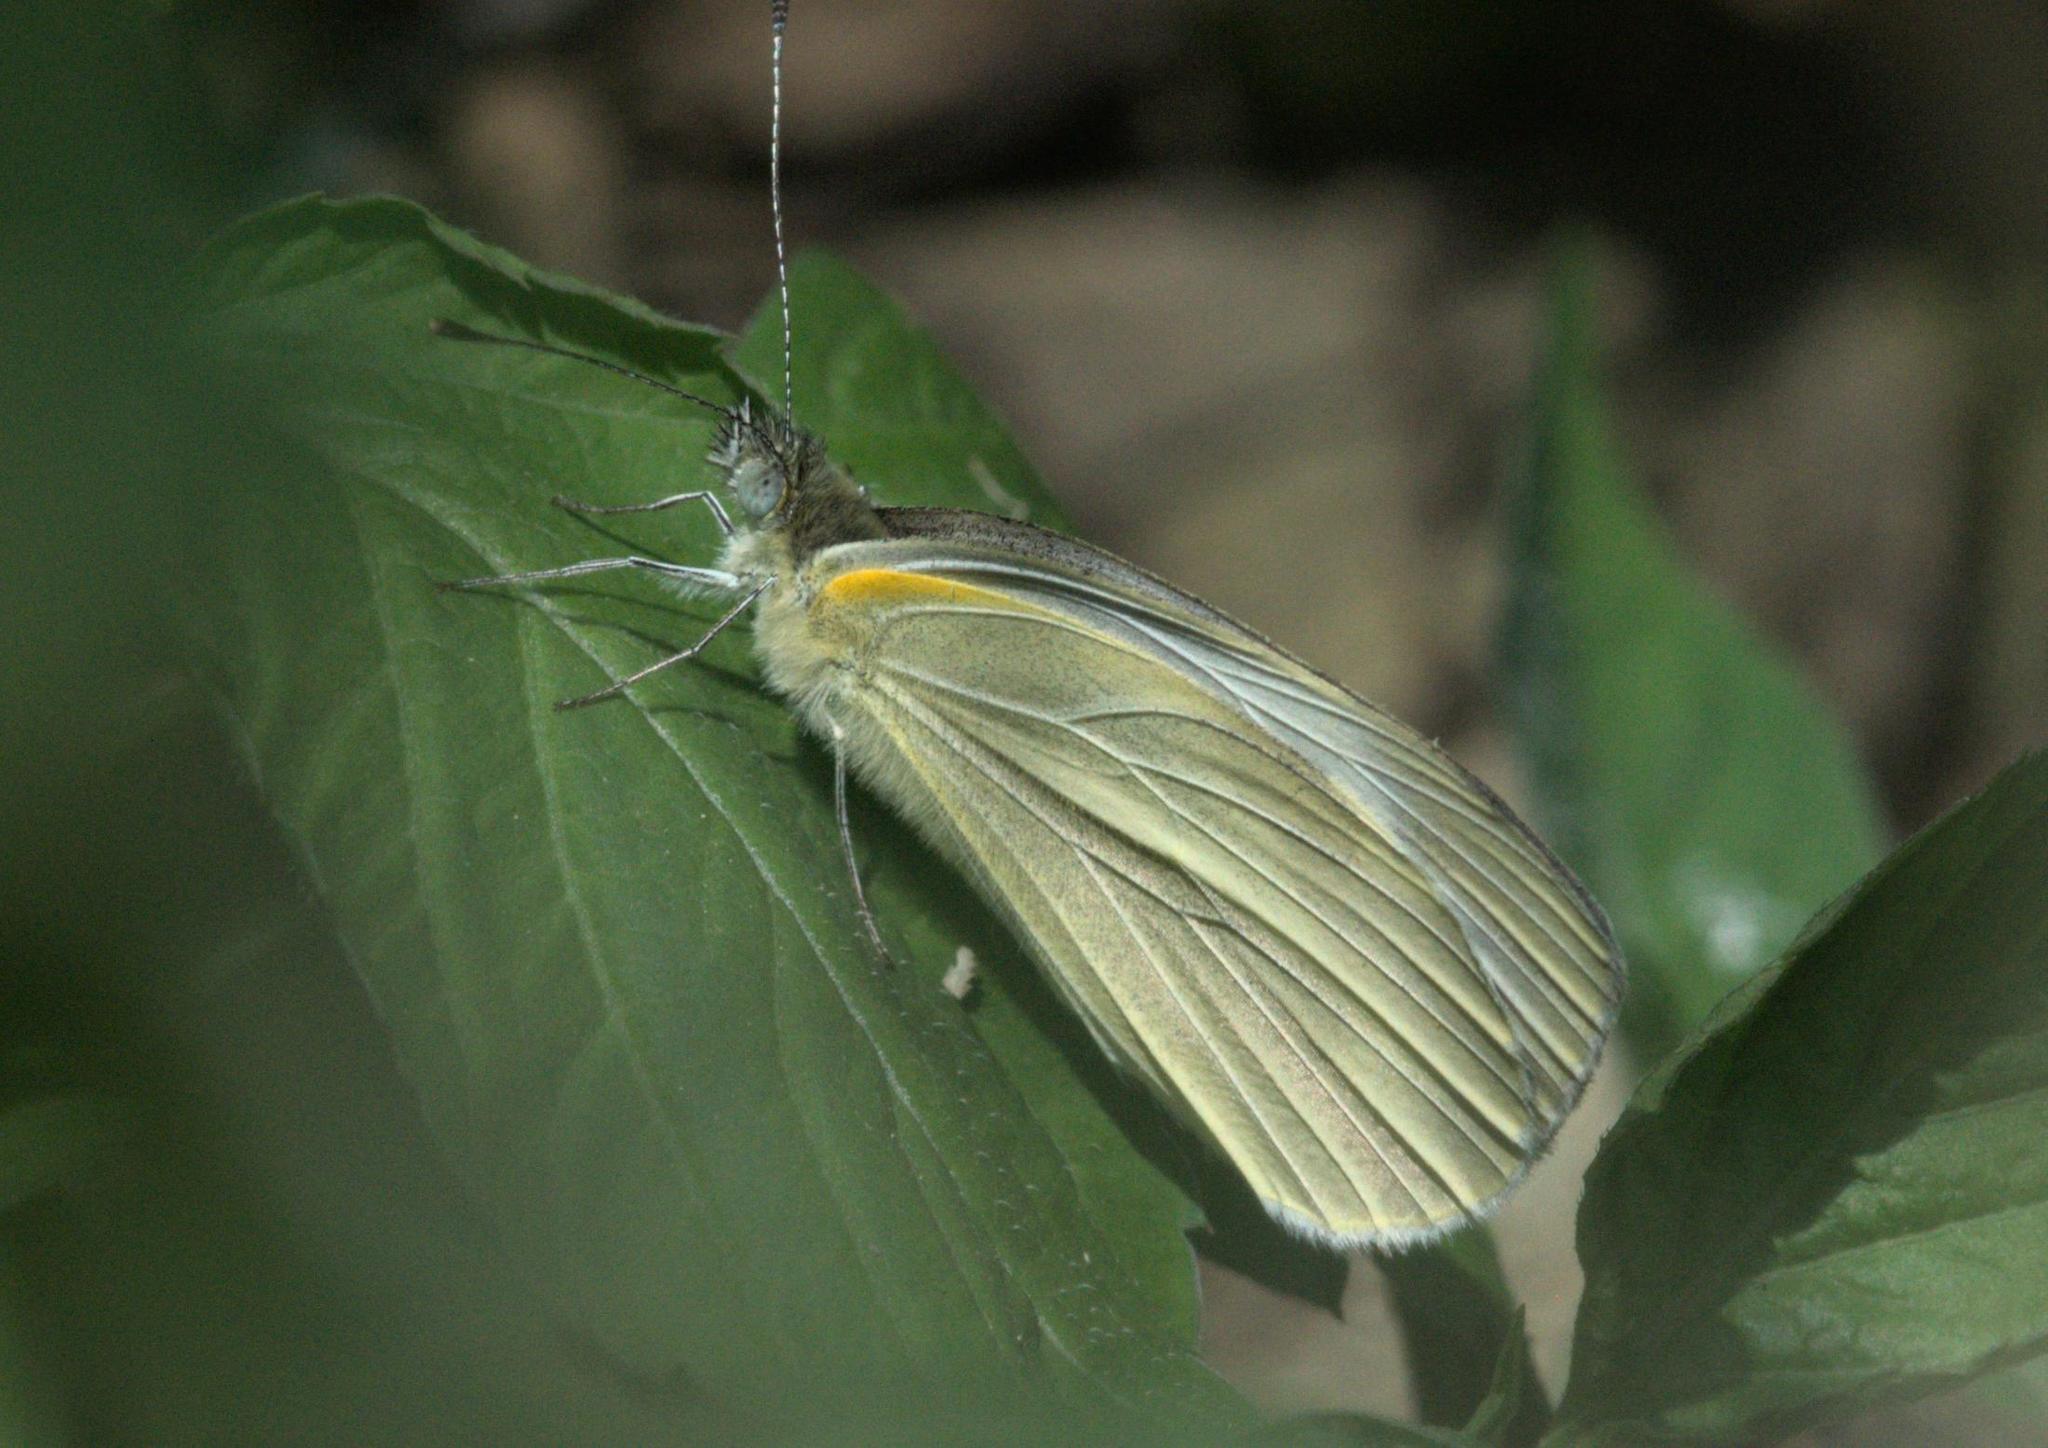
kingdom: Animalia
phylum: Arthropoda
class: Insecta
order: Lepidoptera
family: Pieridae
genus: Pieris
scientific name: Pieris canidia
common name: Indian cabbage white
